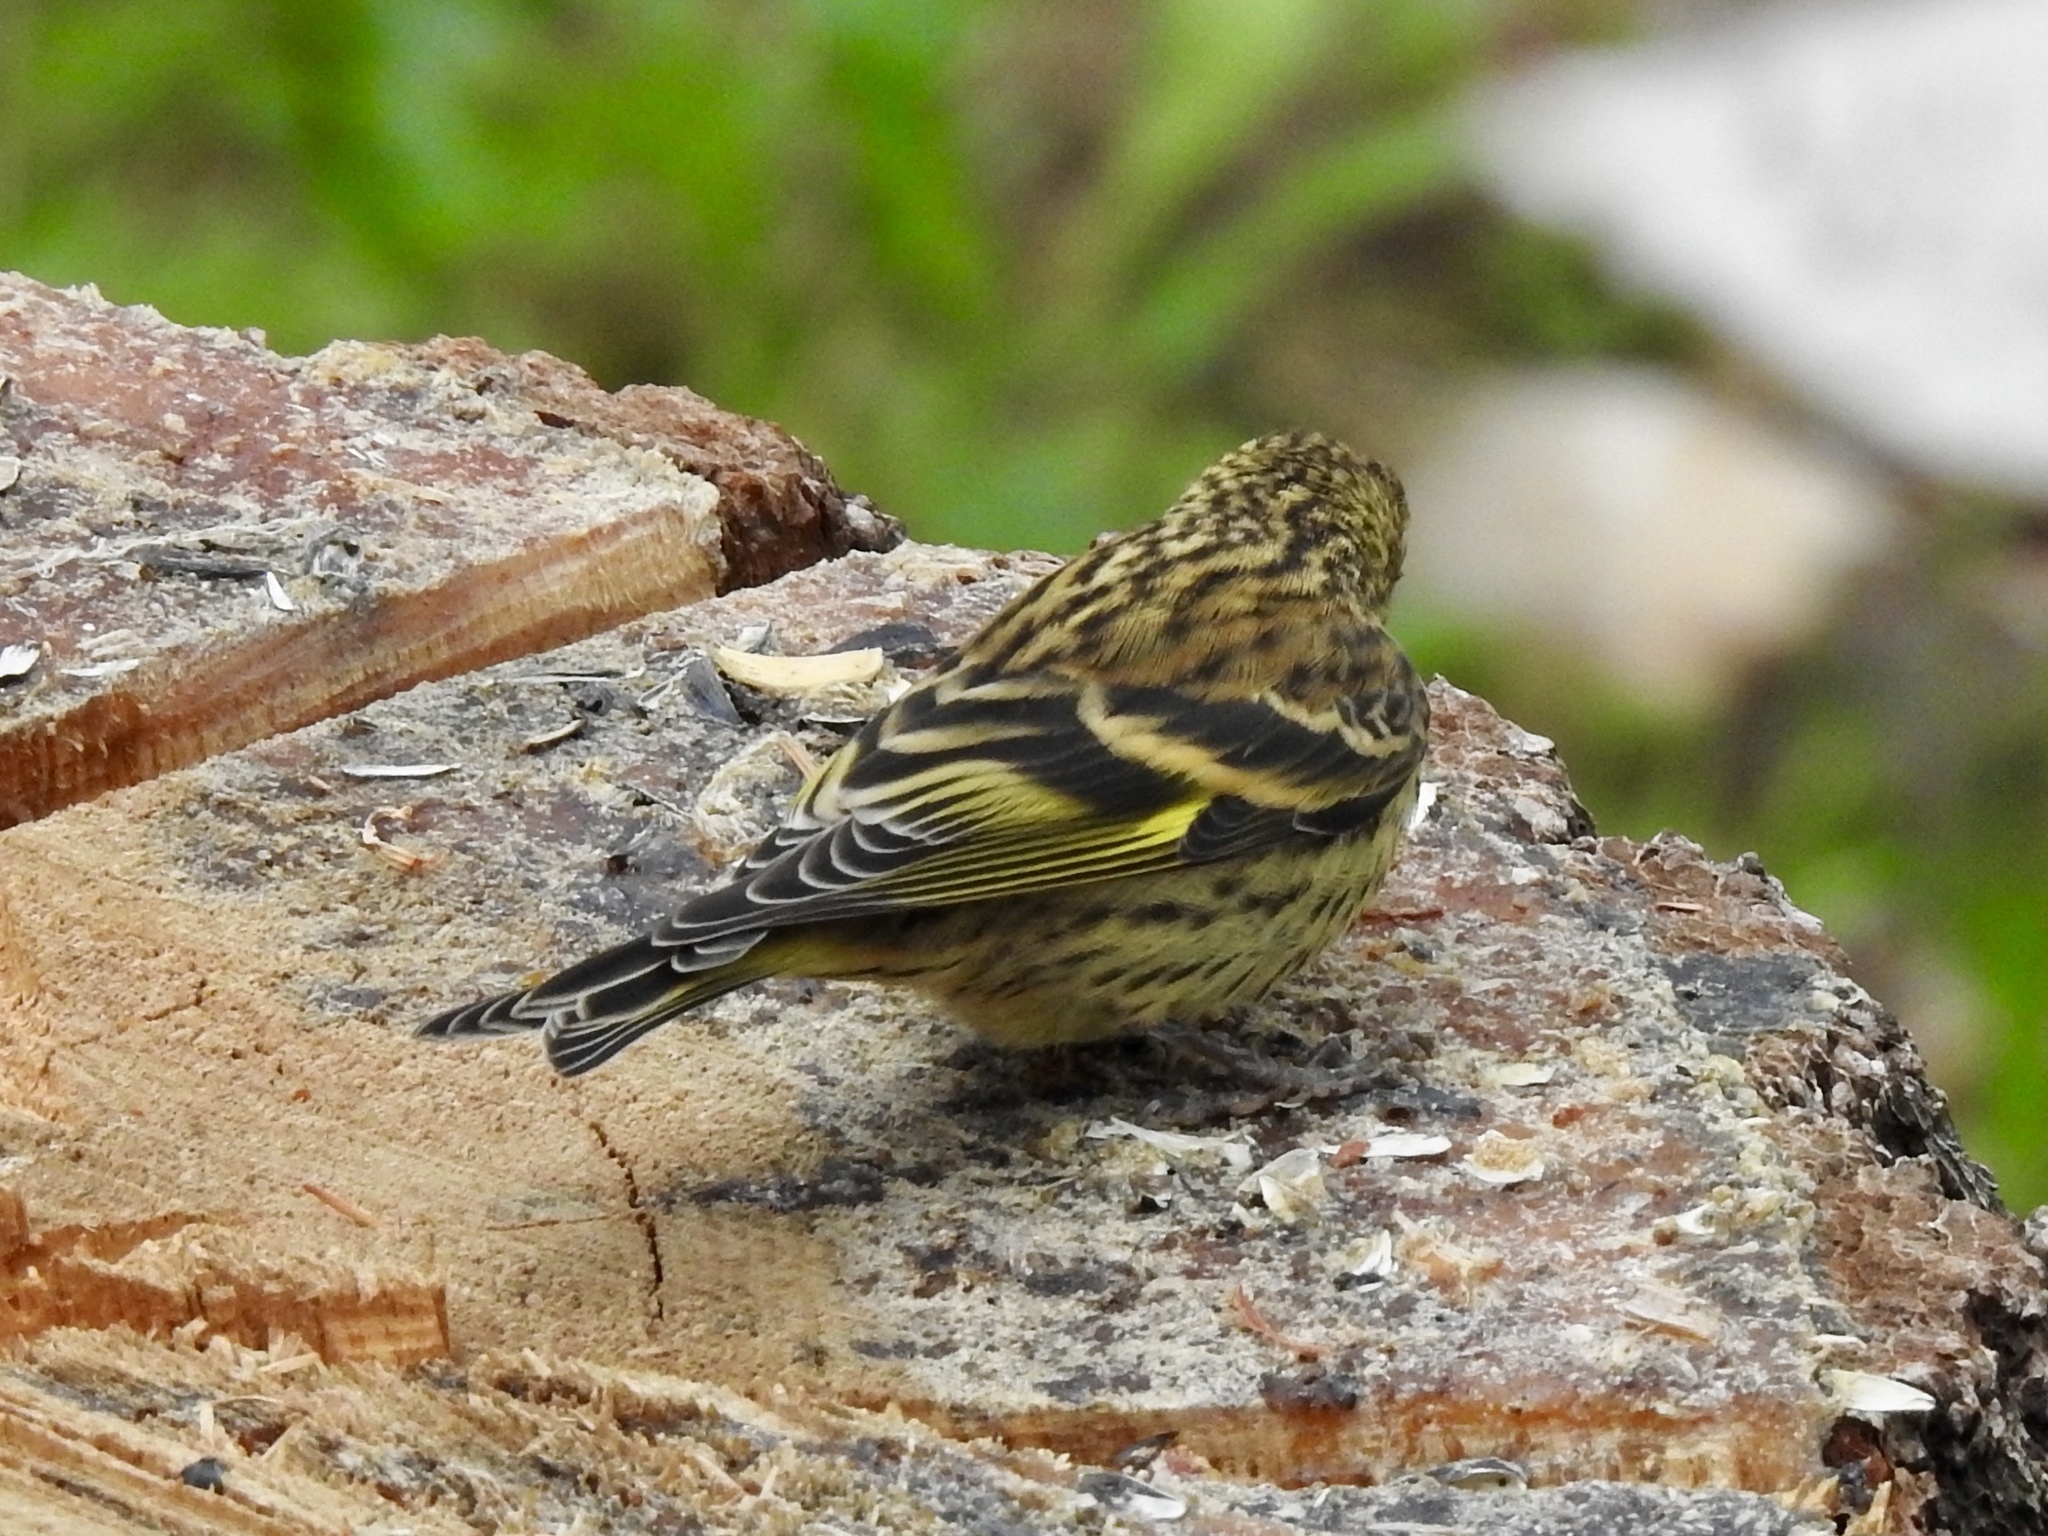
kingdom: Animalia
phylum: Chordata
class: Aves
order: Passeriformes
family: Fringillidae
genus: Spinus
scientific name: Spinus pinus
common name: Pine siskin
